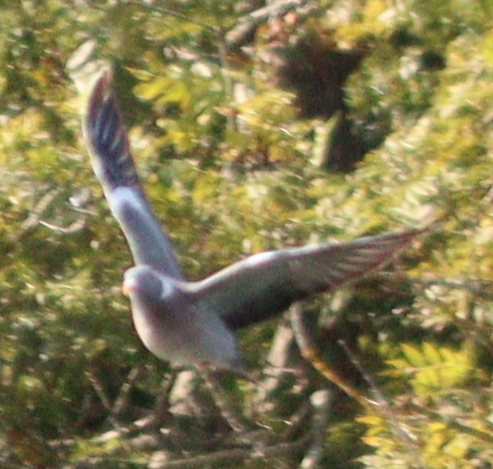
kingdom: Animalia
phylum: Chordata
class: Aves
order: Columbiformes
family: Columbidae
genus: Columba
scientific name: Columba palumbus
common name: Common wood pigeon
